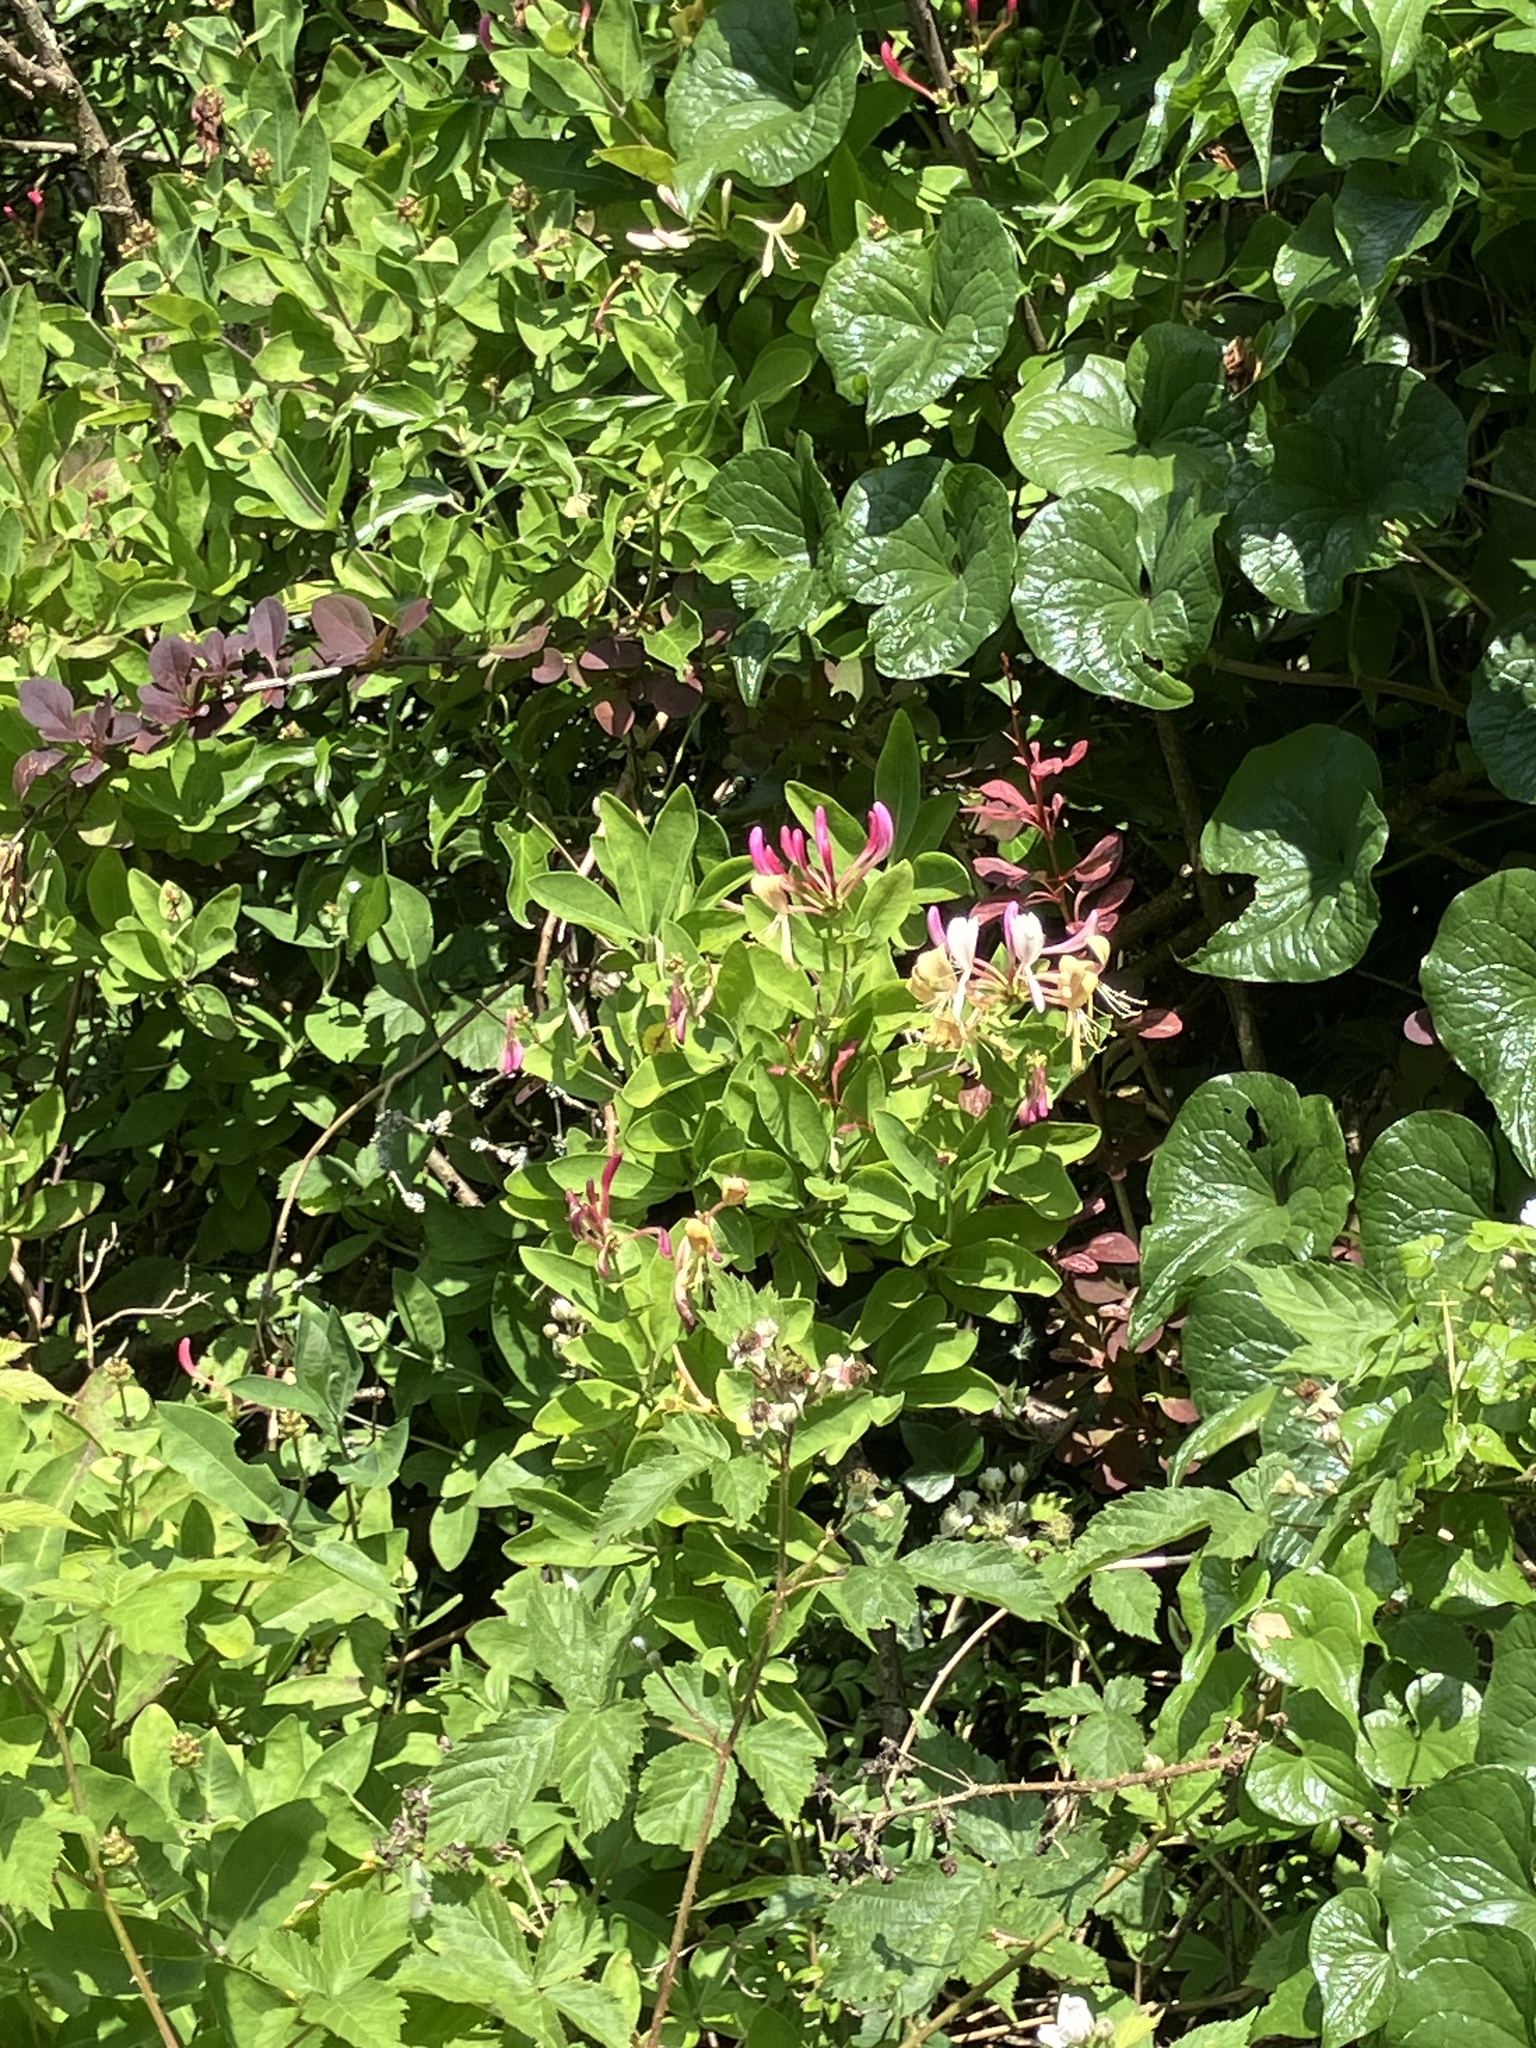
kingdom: Plantae
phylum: Tracheophyta
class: Magnoliopsida
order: Dipsacales
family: Caprifoliaceae
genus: Lonicera
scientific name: Lonicera periclymenum
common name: European honeysuckle
